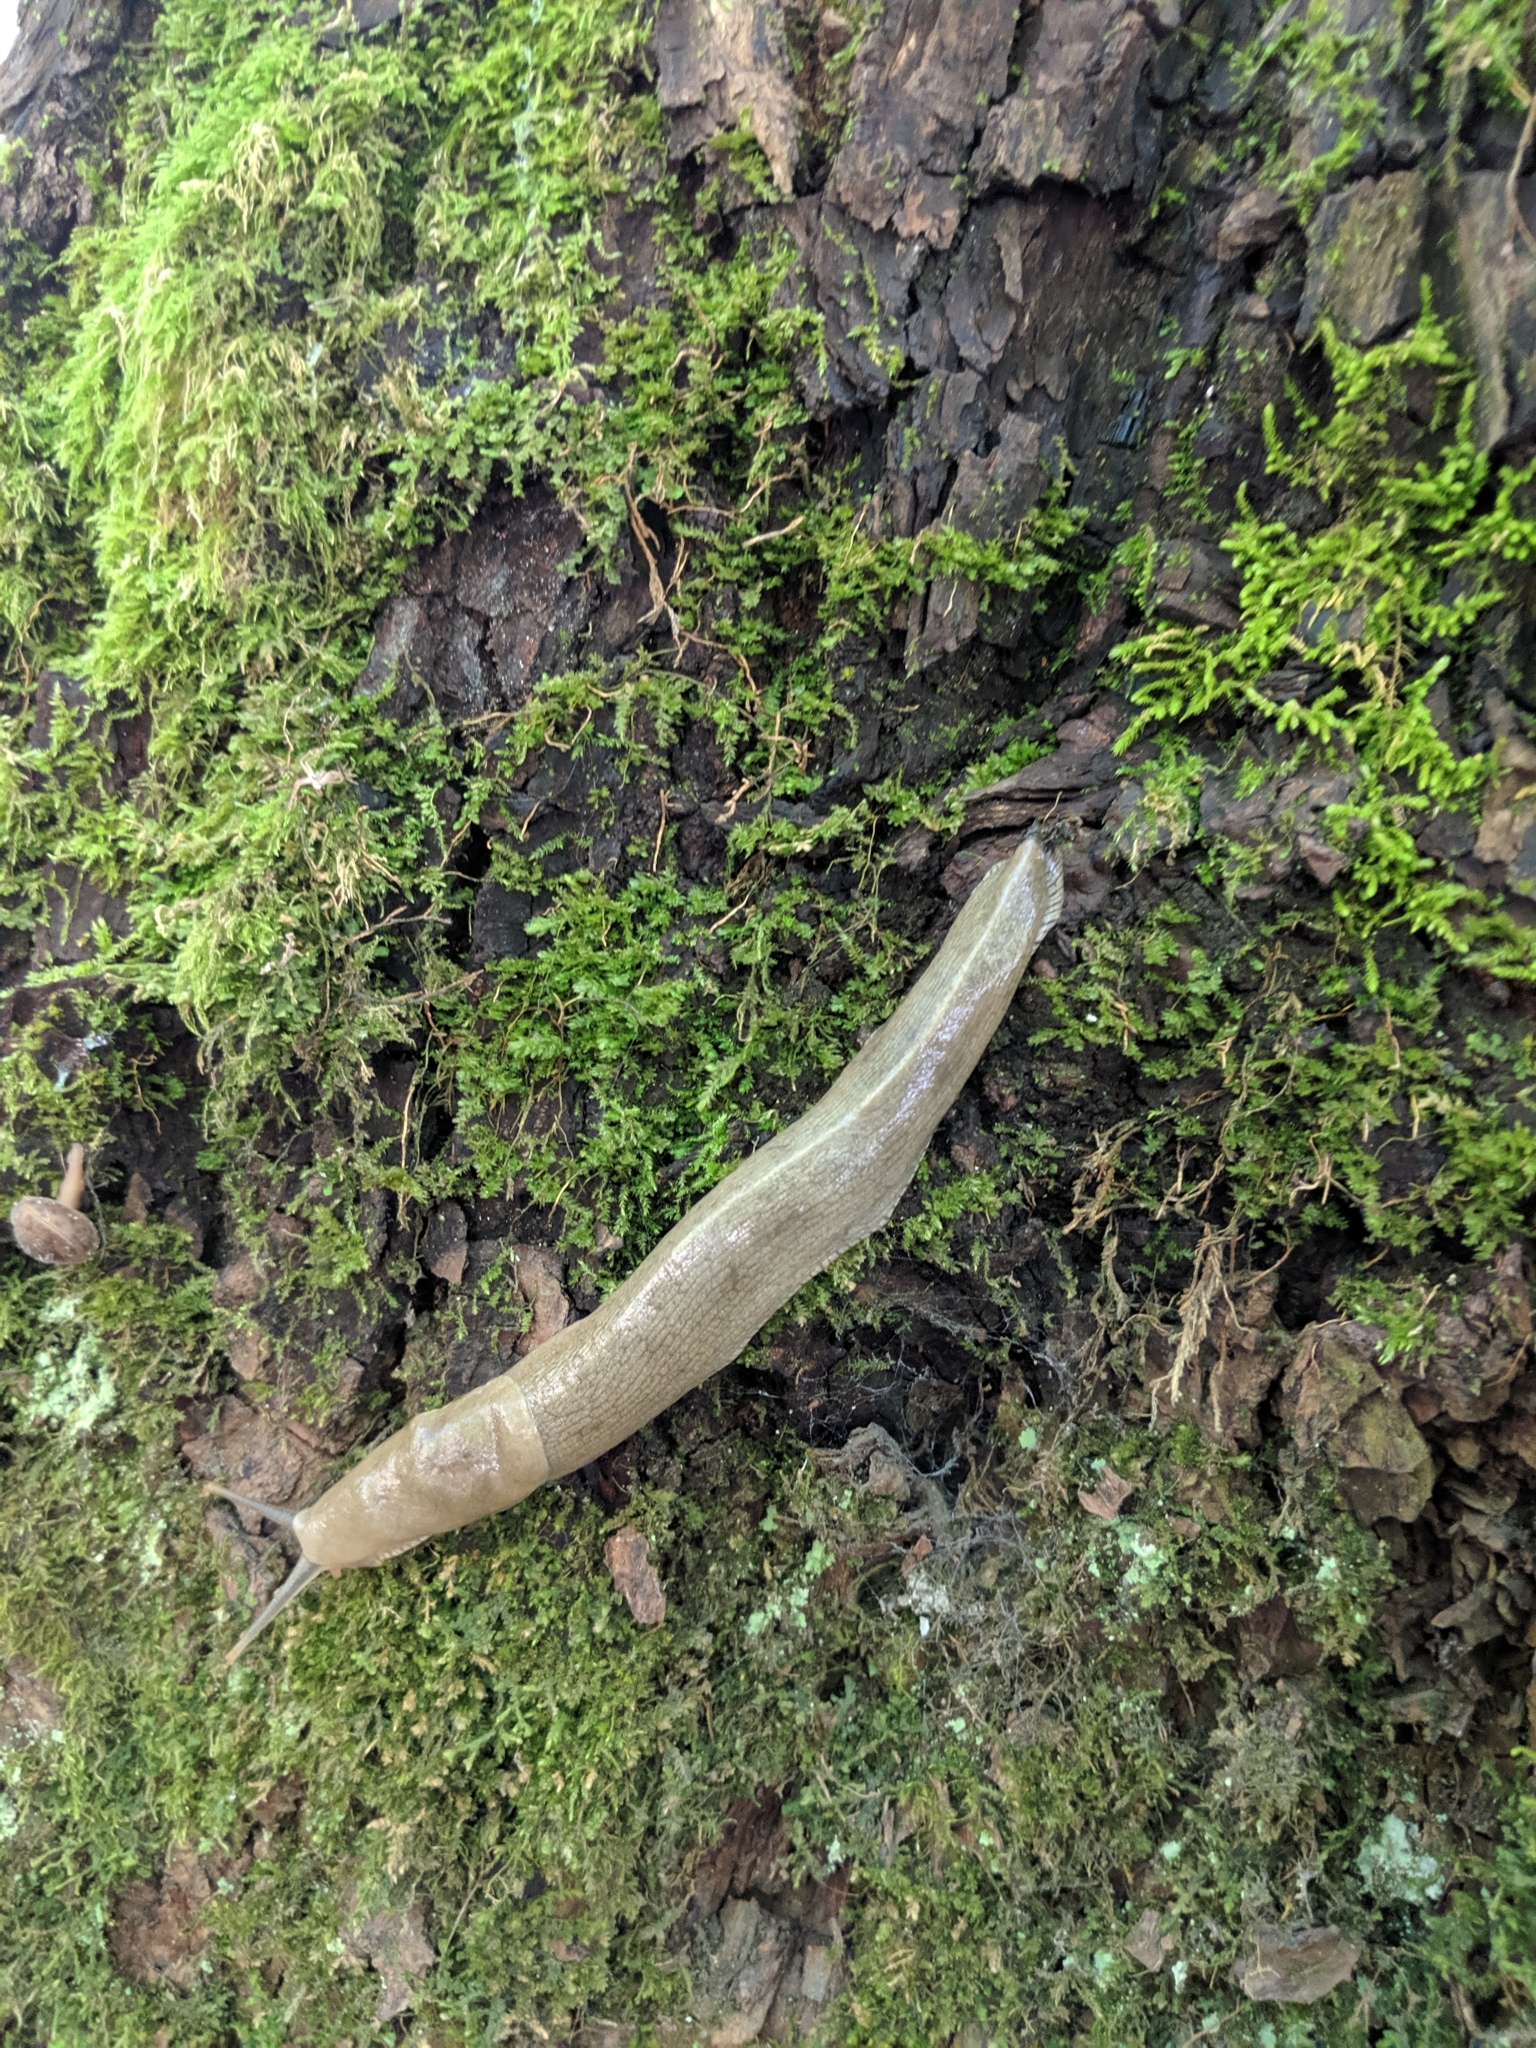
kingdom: Animalia
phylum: Mollusca
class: Gastropoda
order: Stylommatophora
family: Ariolimacidae
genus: Ariolimax
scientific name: Ariolimax columbianus
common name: Pacific banana slug
